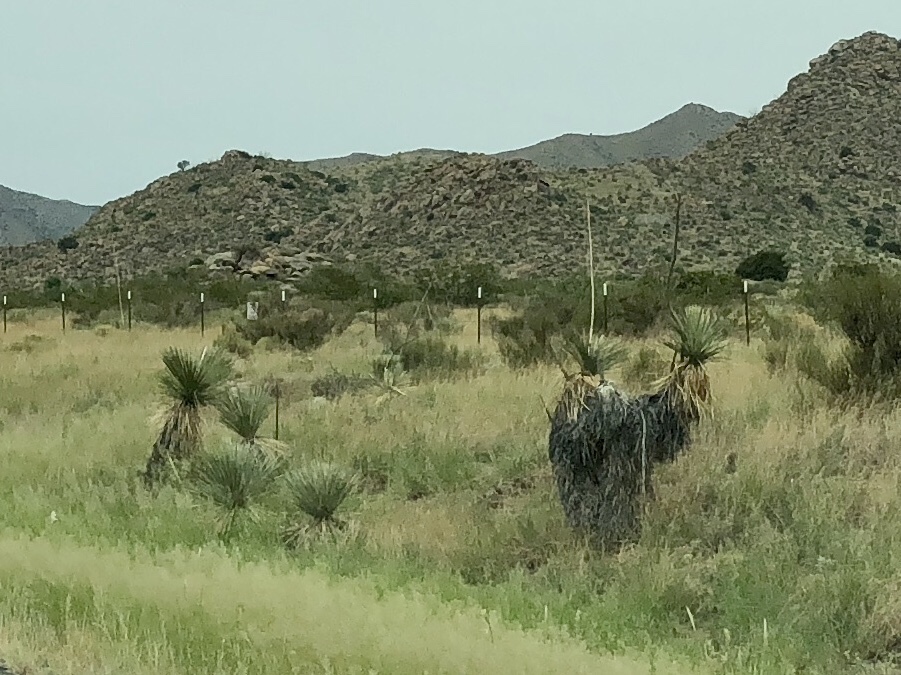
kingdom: Plantae
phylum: Tracheophyta
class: Liliopsida
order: Asparagales
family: Asparagaceae
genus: Yucca
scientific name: Yucca elata
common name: Palmella
